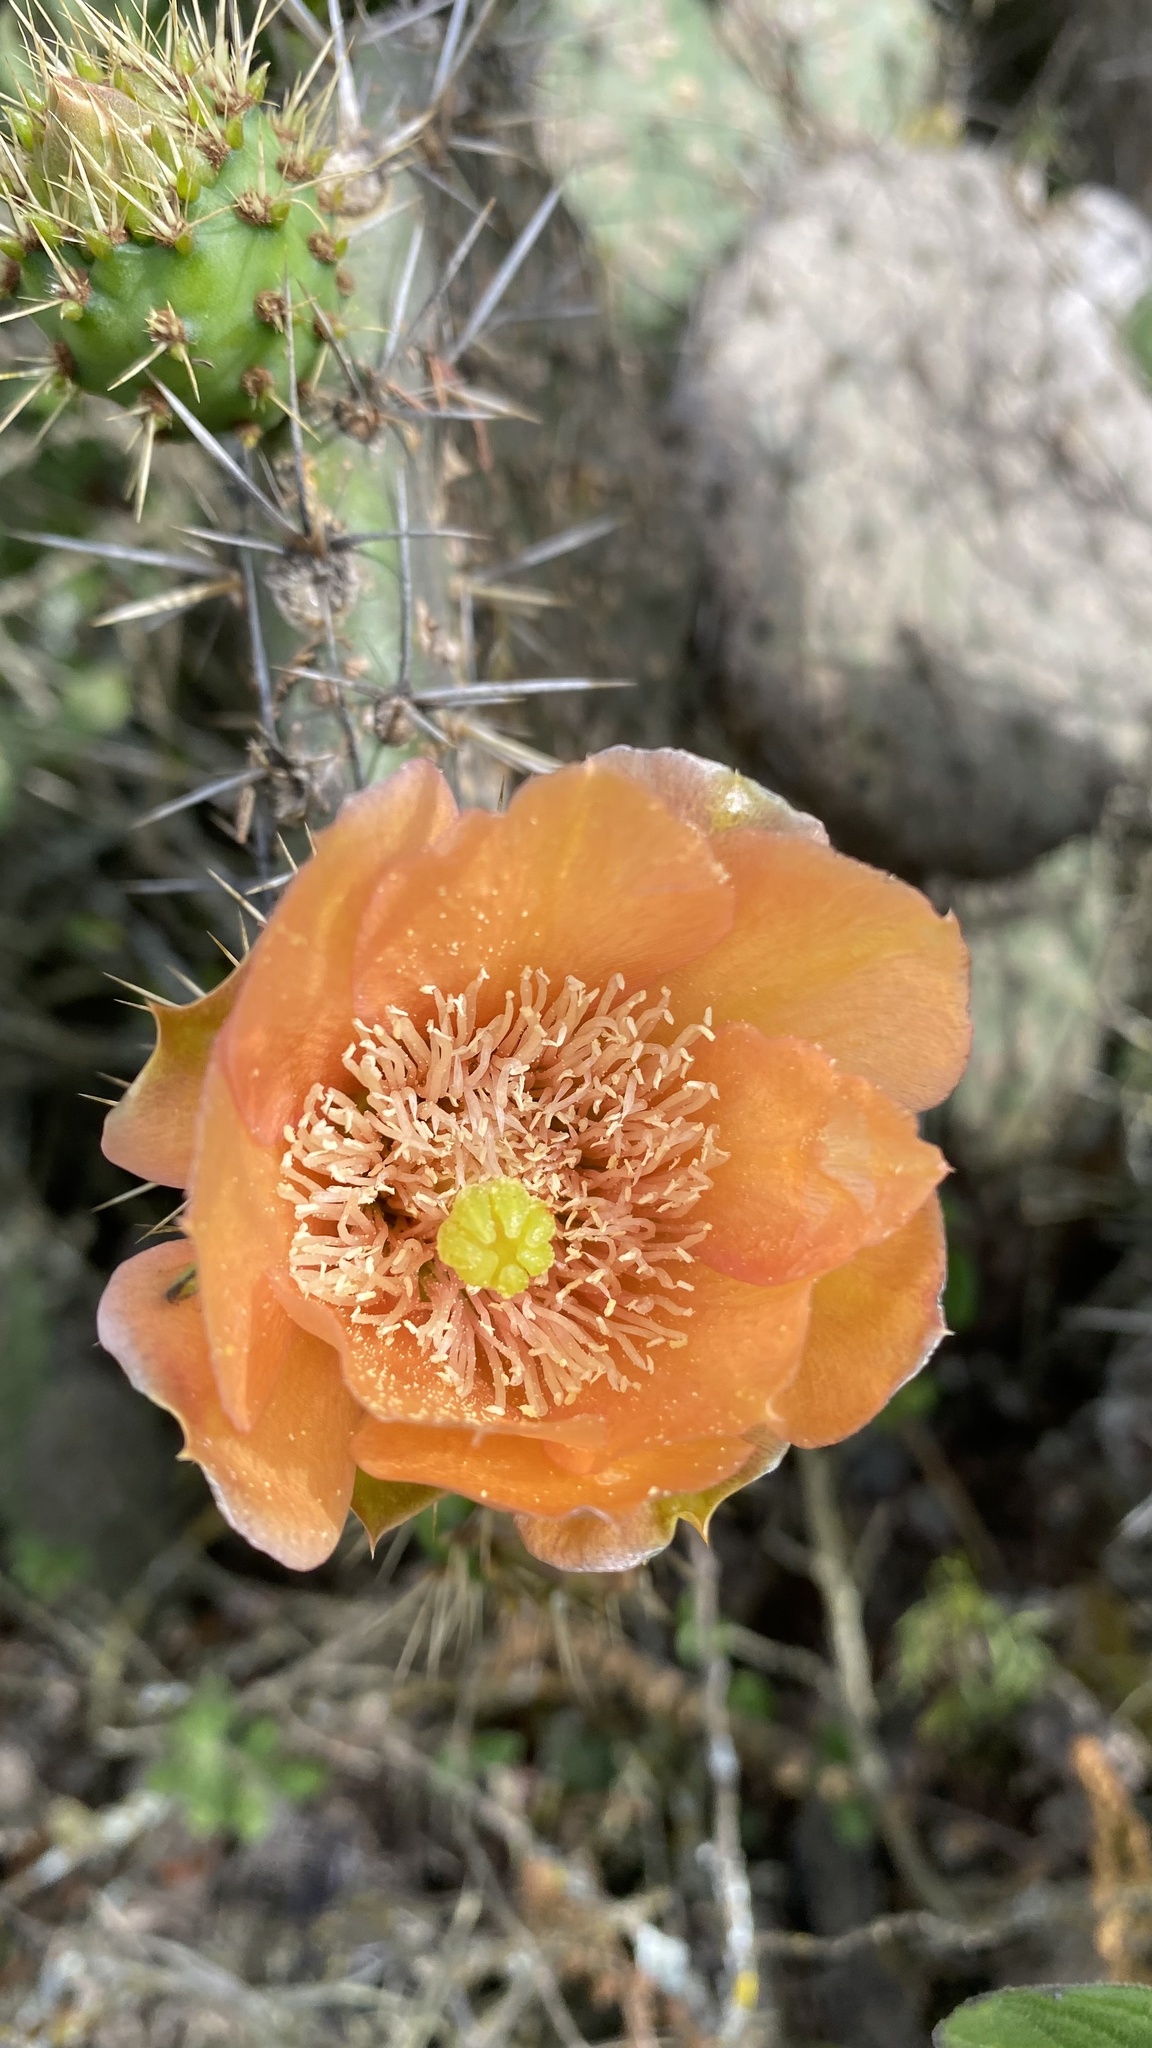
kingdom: Plantae
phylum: Tracheophyta
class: Magnoliopsida
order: Caryophyllales
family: Cactaceae
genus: Opuntia
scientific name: Opuntia soederstromiana
